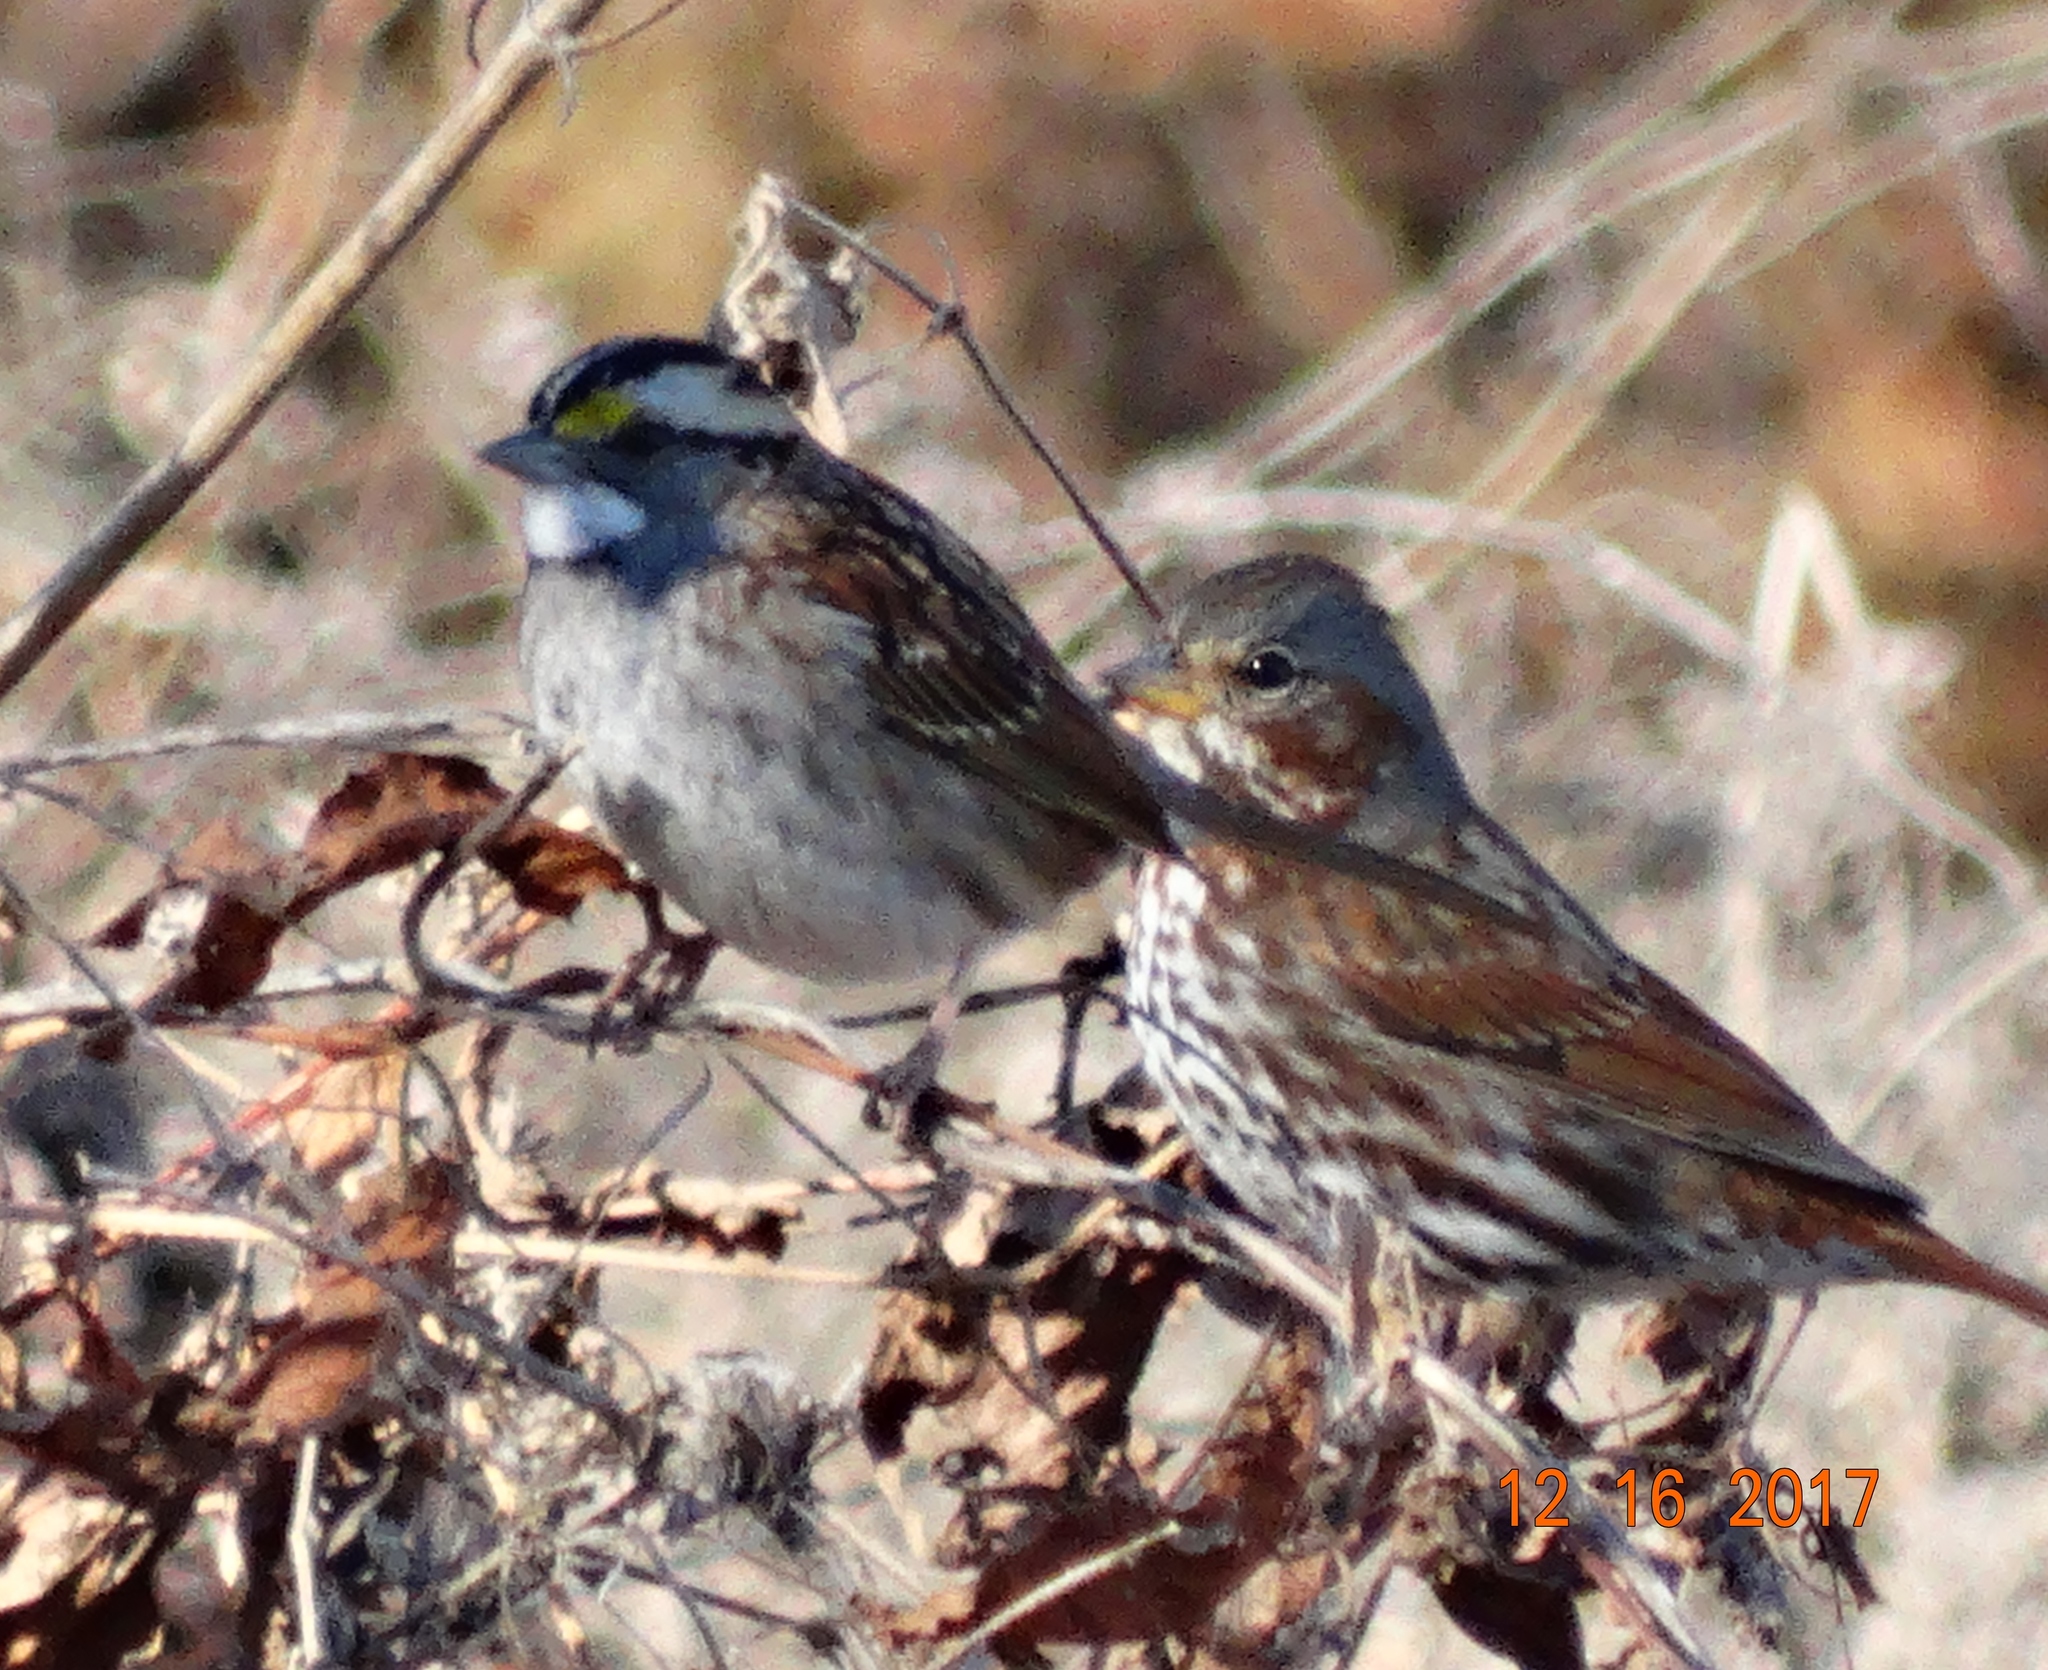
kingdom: Animalia
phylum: Chordata
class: Aves
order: Passeriformes
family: Passerellidae
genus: Zonotrichia
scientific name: Zonotrichia albicollis
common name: White-throated sparrow
